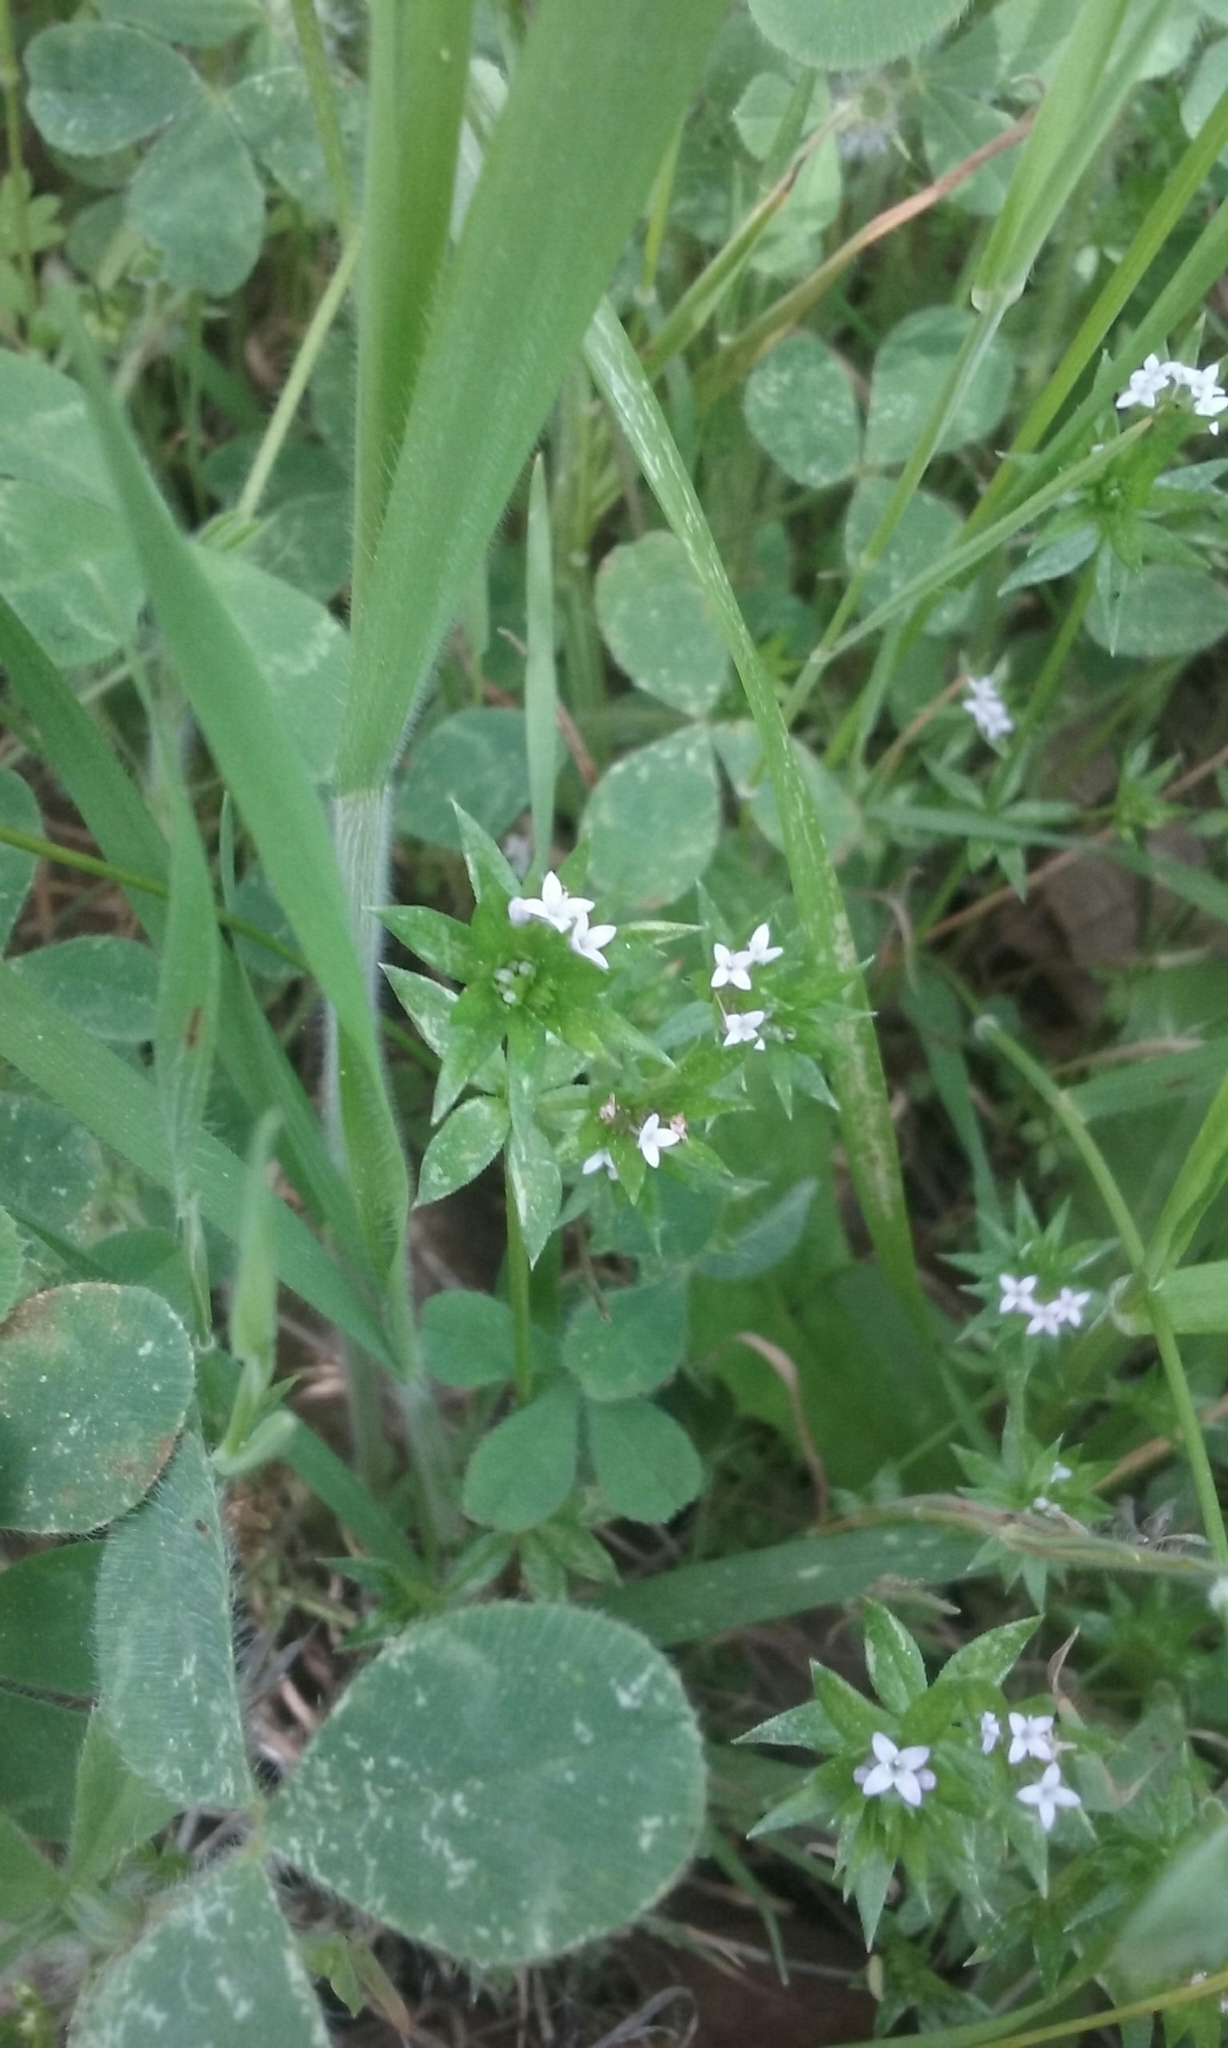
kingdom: Plantae
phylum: Tracheophyta
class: Magnoliopsida
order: Gentianales
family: Rubiaceae
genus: Sherardia
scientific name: Sherardia arvensis
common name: Field madder
